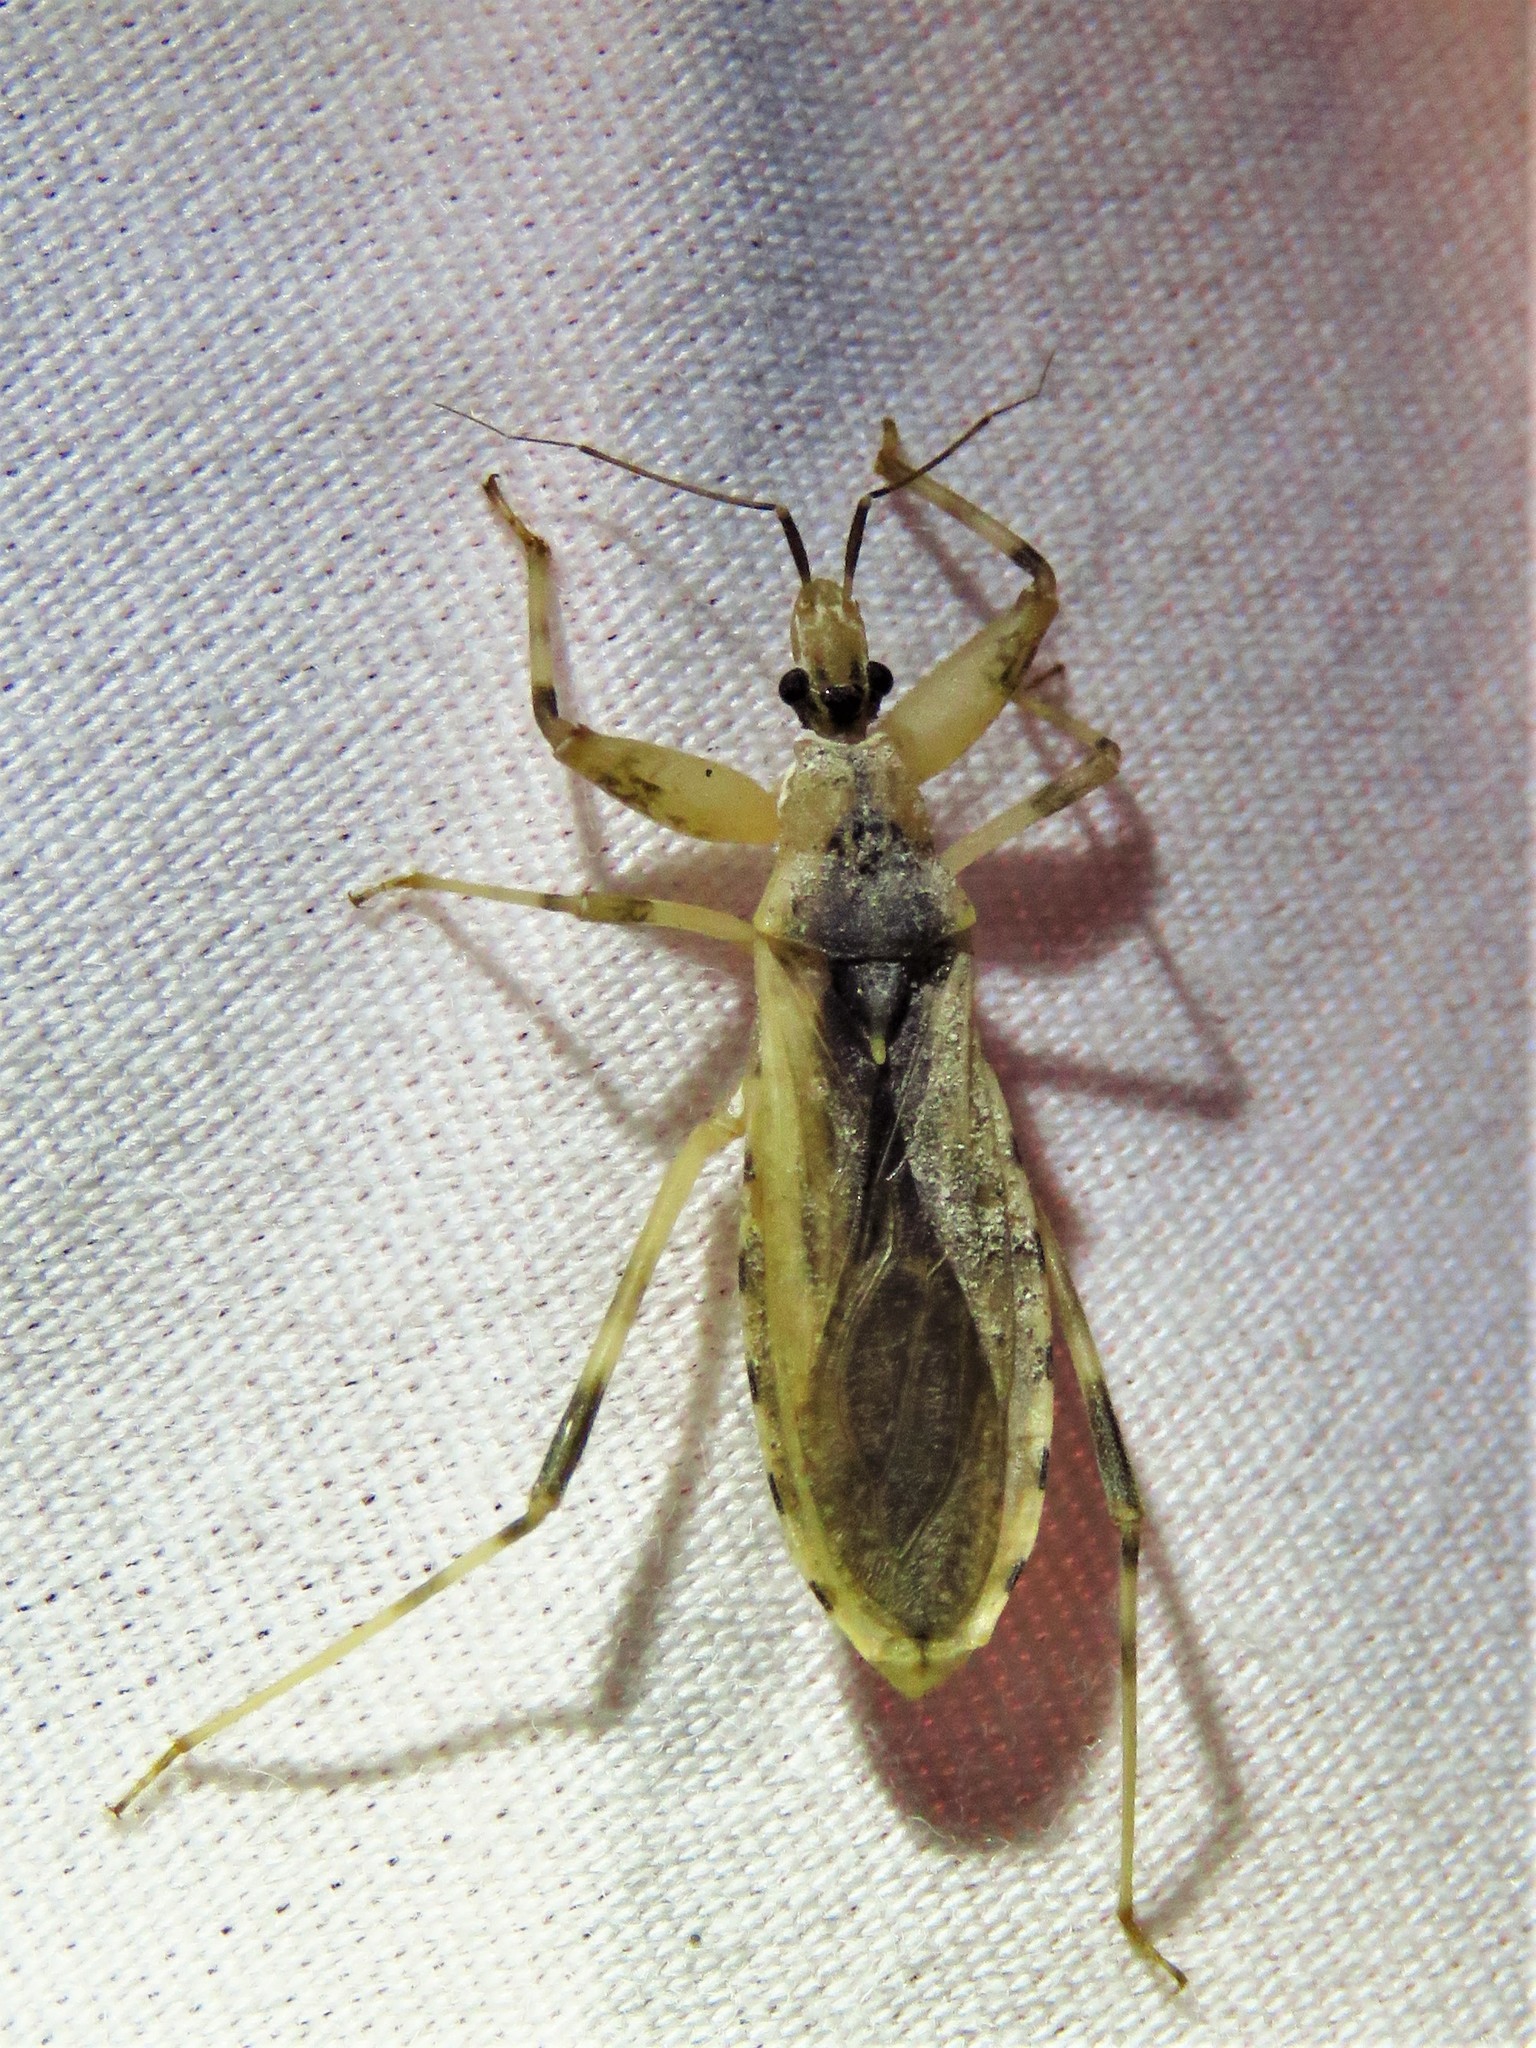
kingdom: Animalia
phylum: Arthropoda
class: Insecta
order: Hemiptera
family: Reduviidae
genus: Oncocephalus
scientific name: Oncocephalus nubilus
